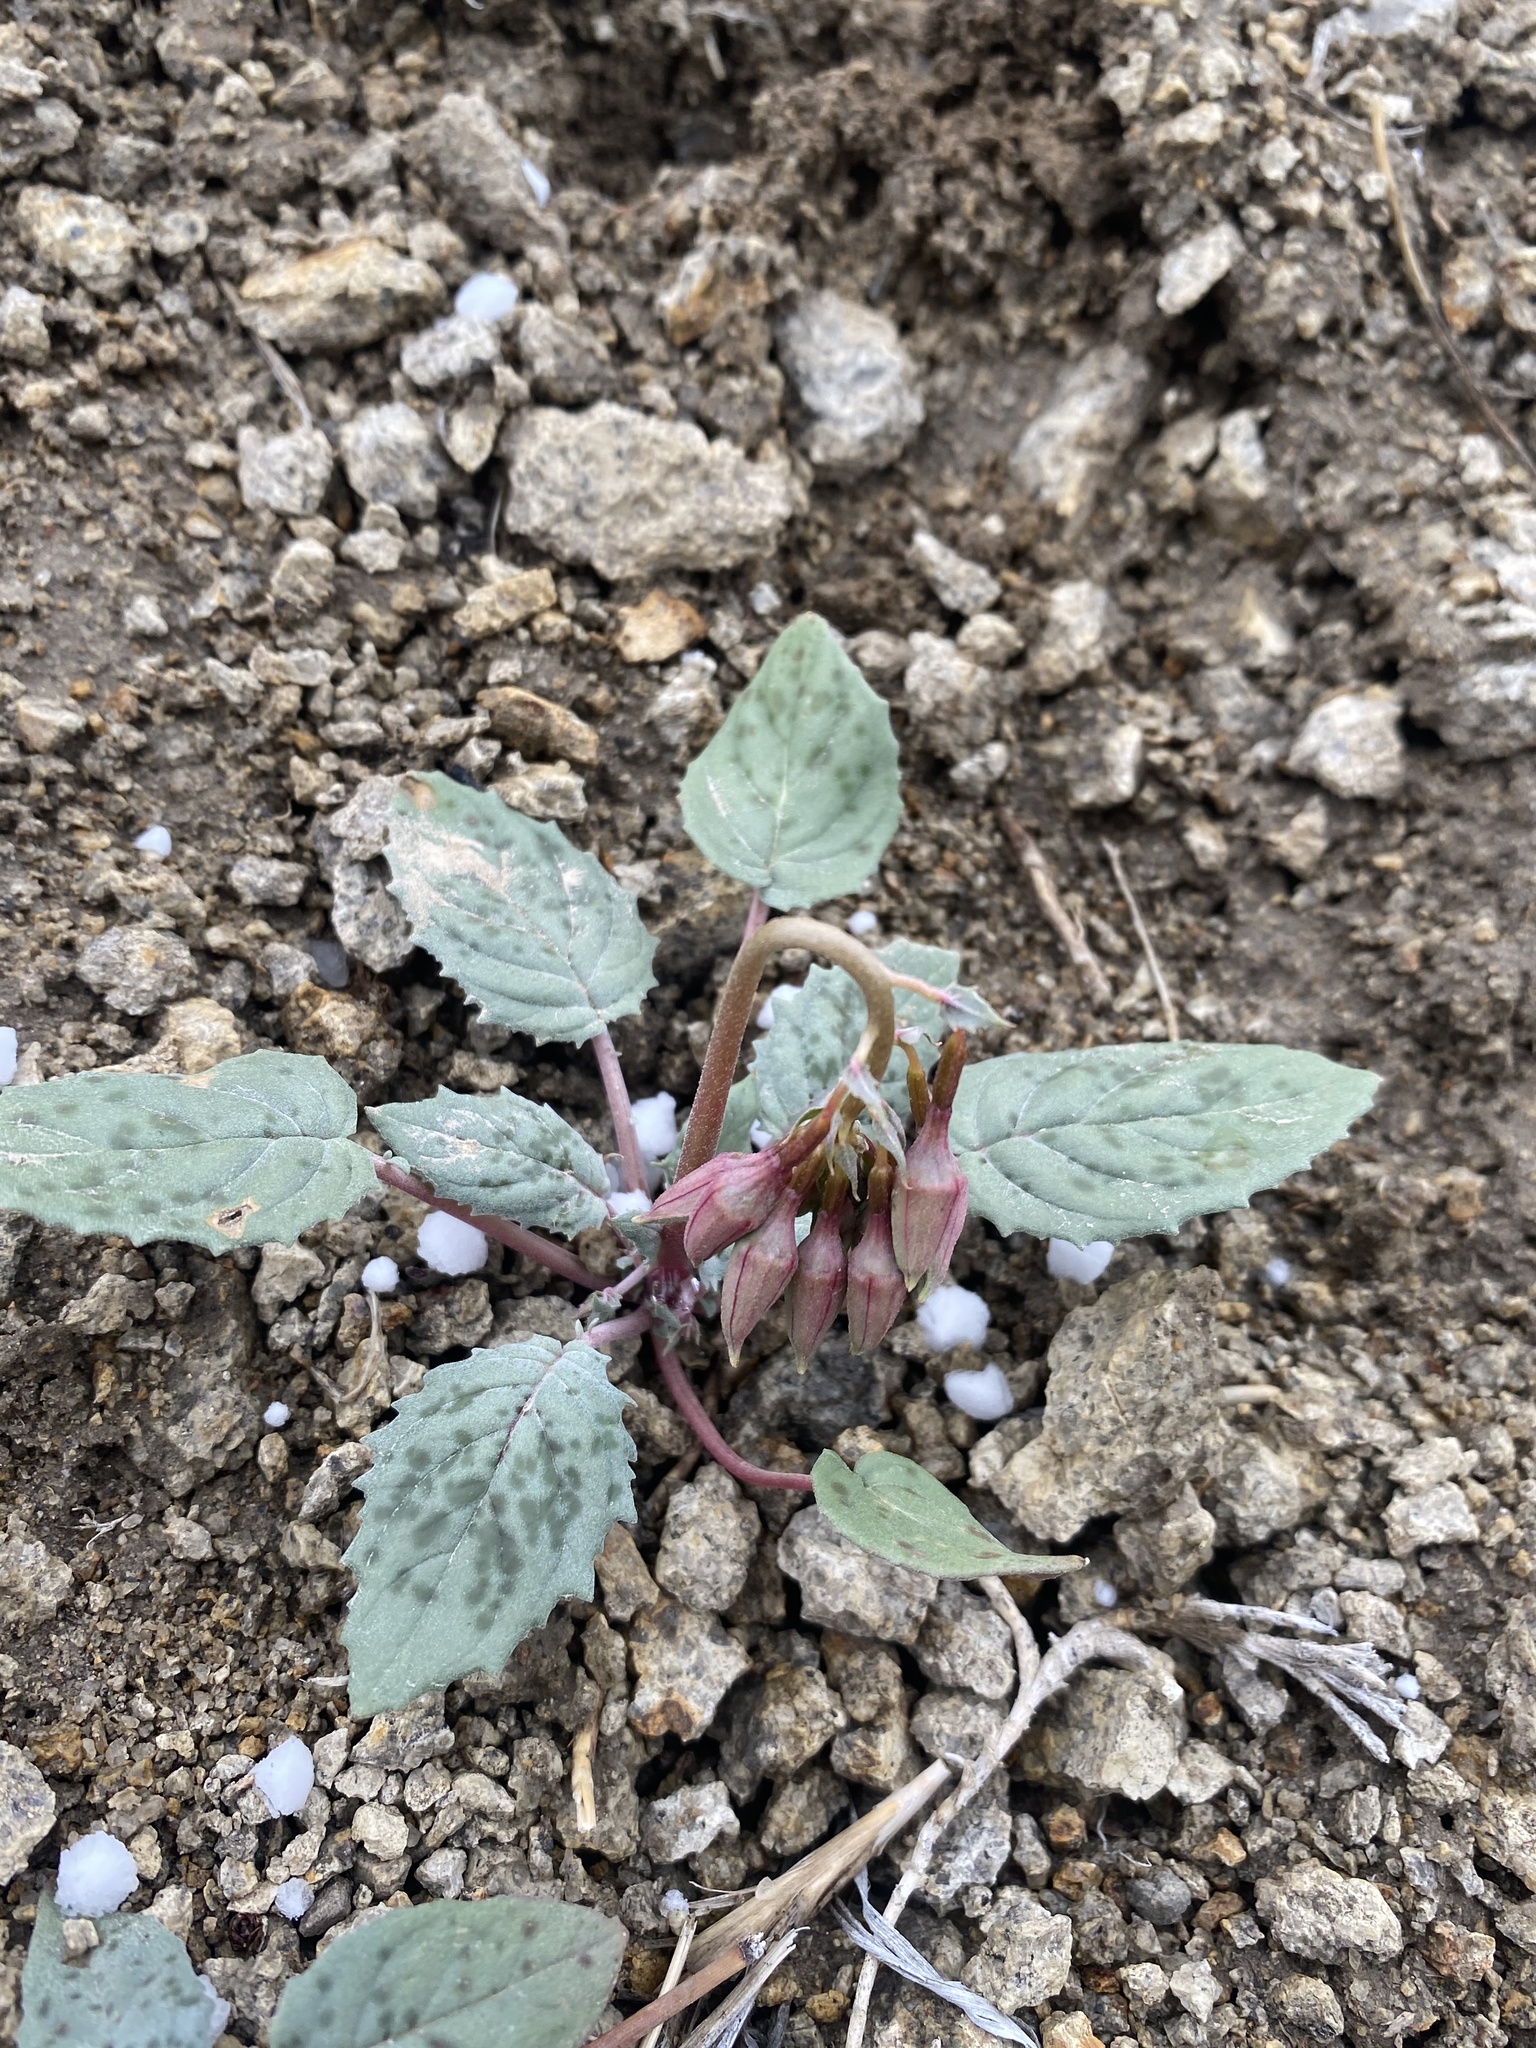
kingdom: Plantae
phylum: Tracheophyta
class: Magnoliopsida
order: Myrtales
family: Onagraceae
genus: Chylismia
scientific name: Chylismia claviformis
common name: Browneyes
